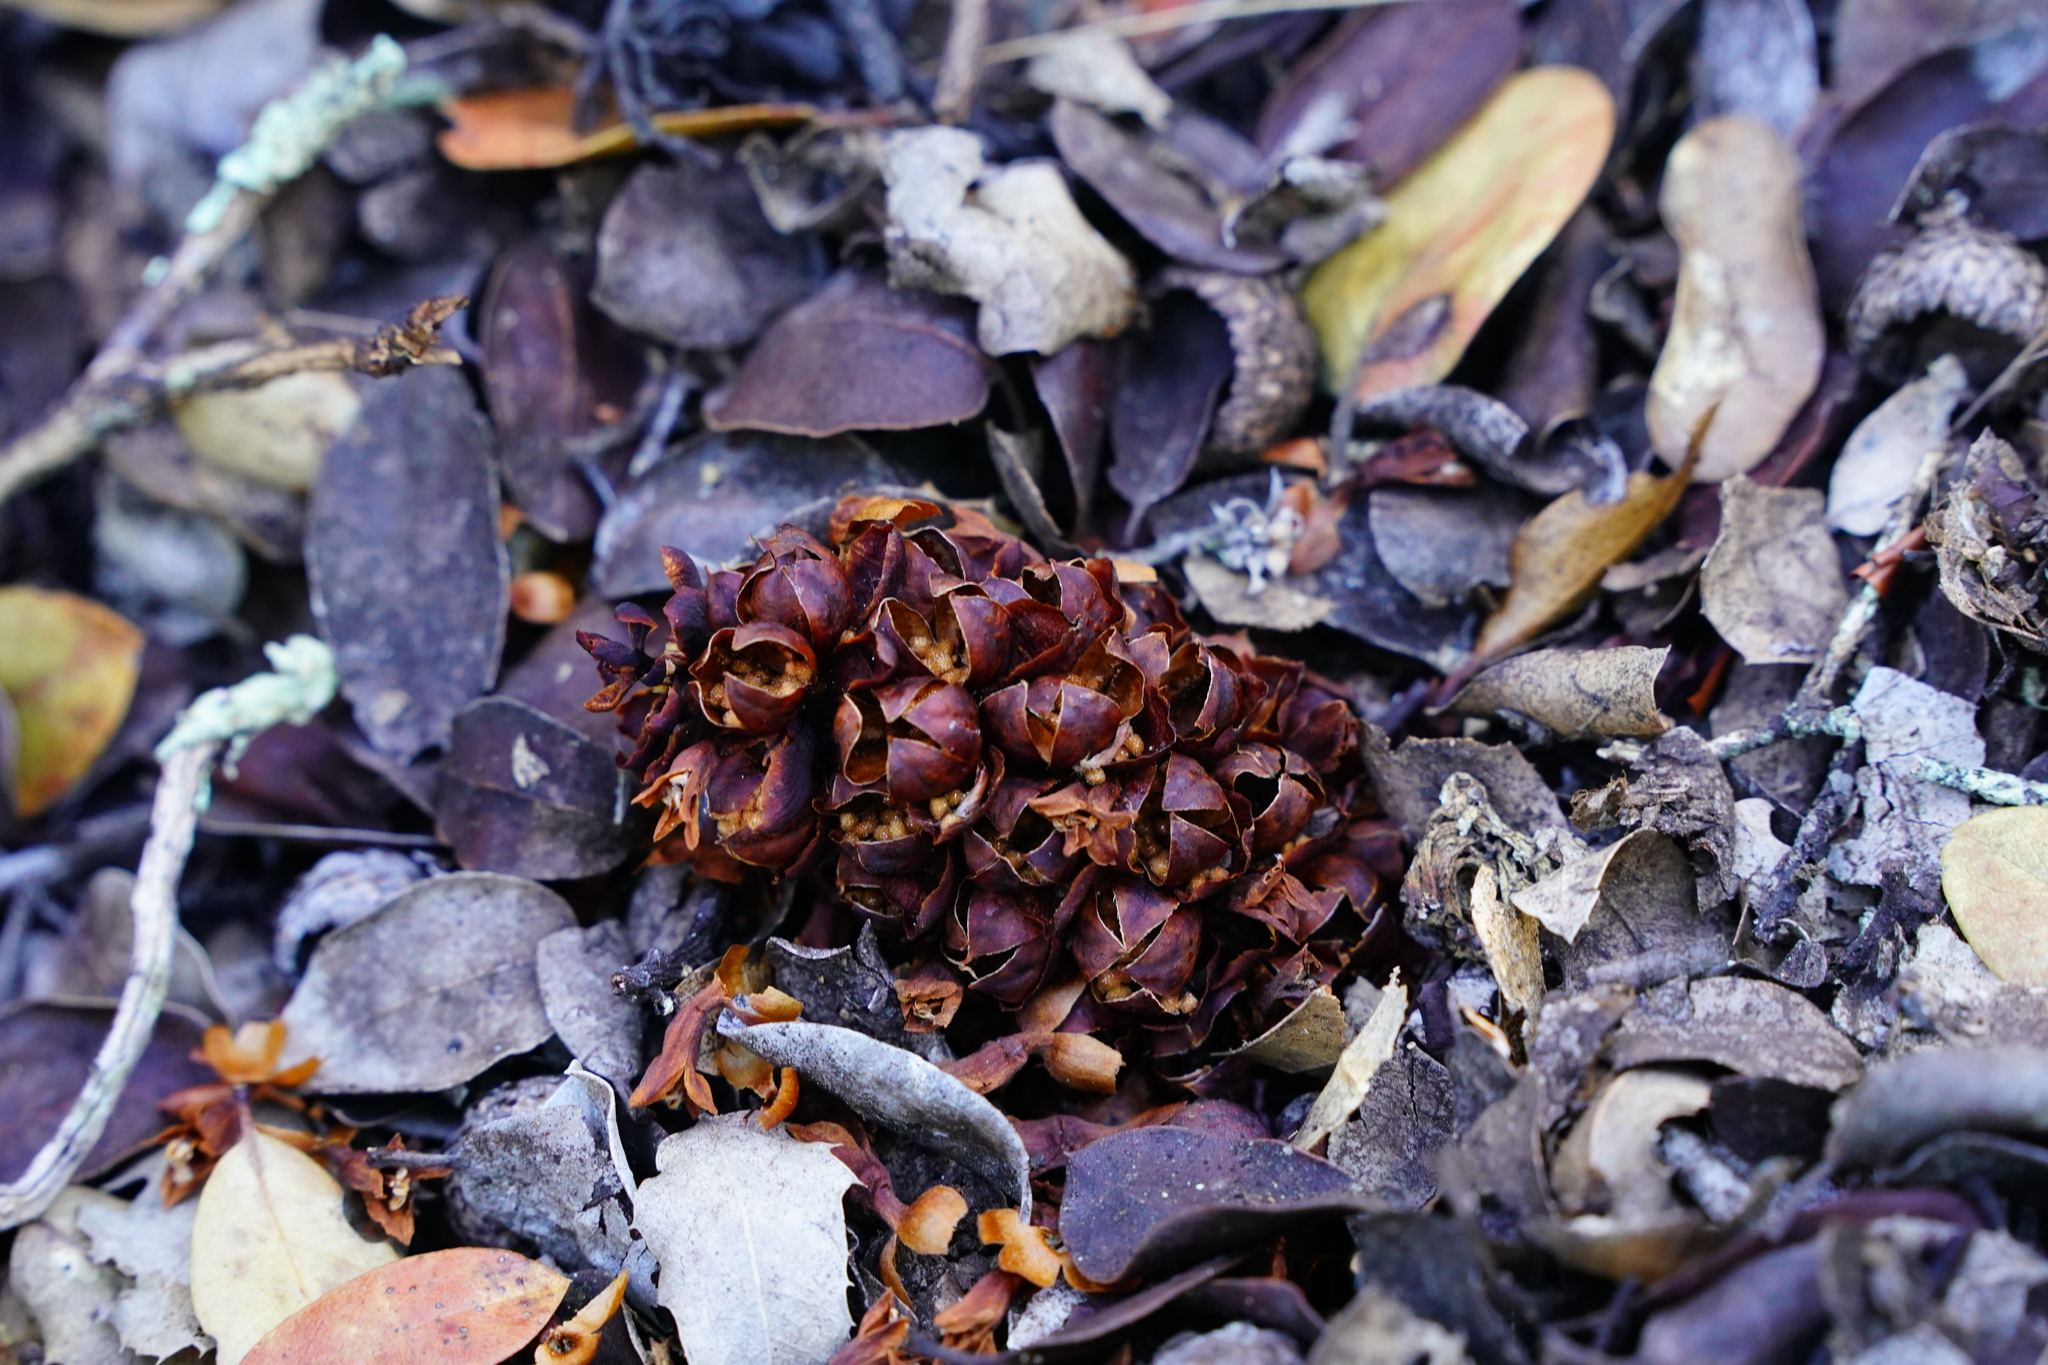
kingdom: Plantae
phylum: Tracheophyta
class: Magnoliopsida
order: Lamiales
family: Orobanchaceae
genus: Kopsiopsis
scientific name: Kopsiopsis strobilacea
